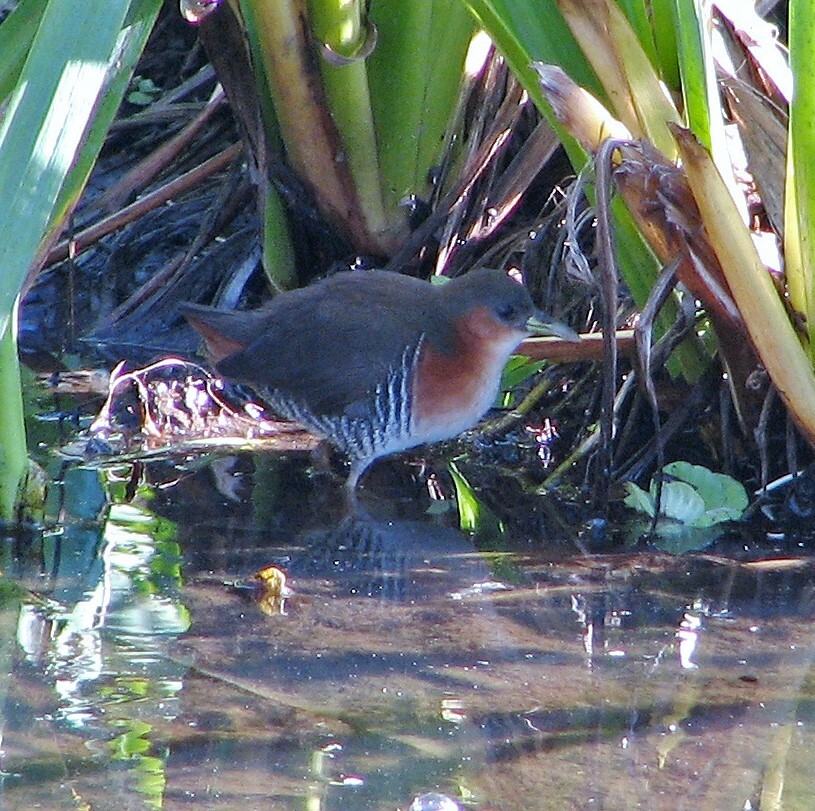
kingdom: Animalia
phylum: Chordata
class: Aves
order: Gruiformes
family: Rallidae
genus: Laterallus
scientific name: Laterallus melanophaius
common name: Rufous-sided crake
